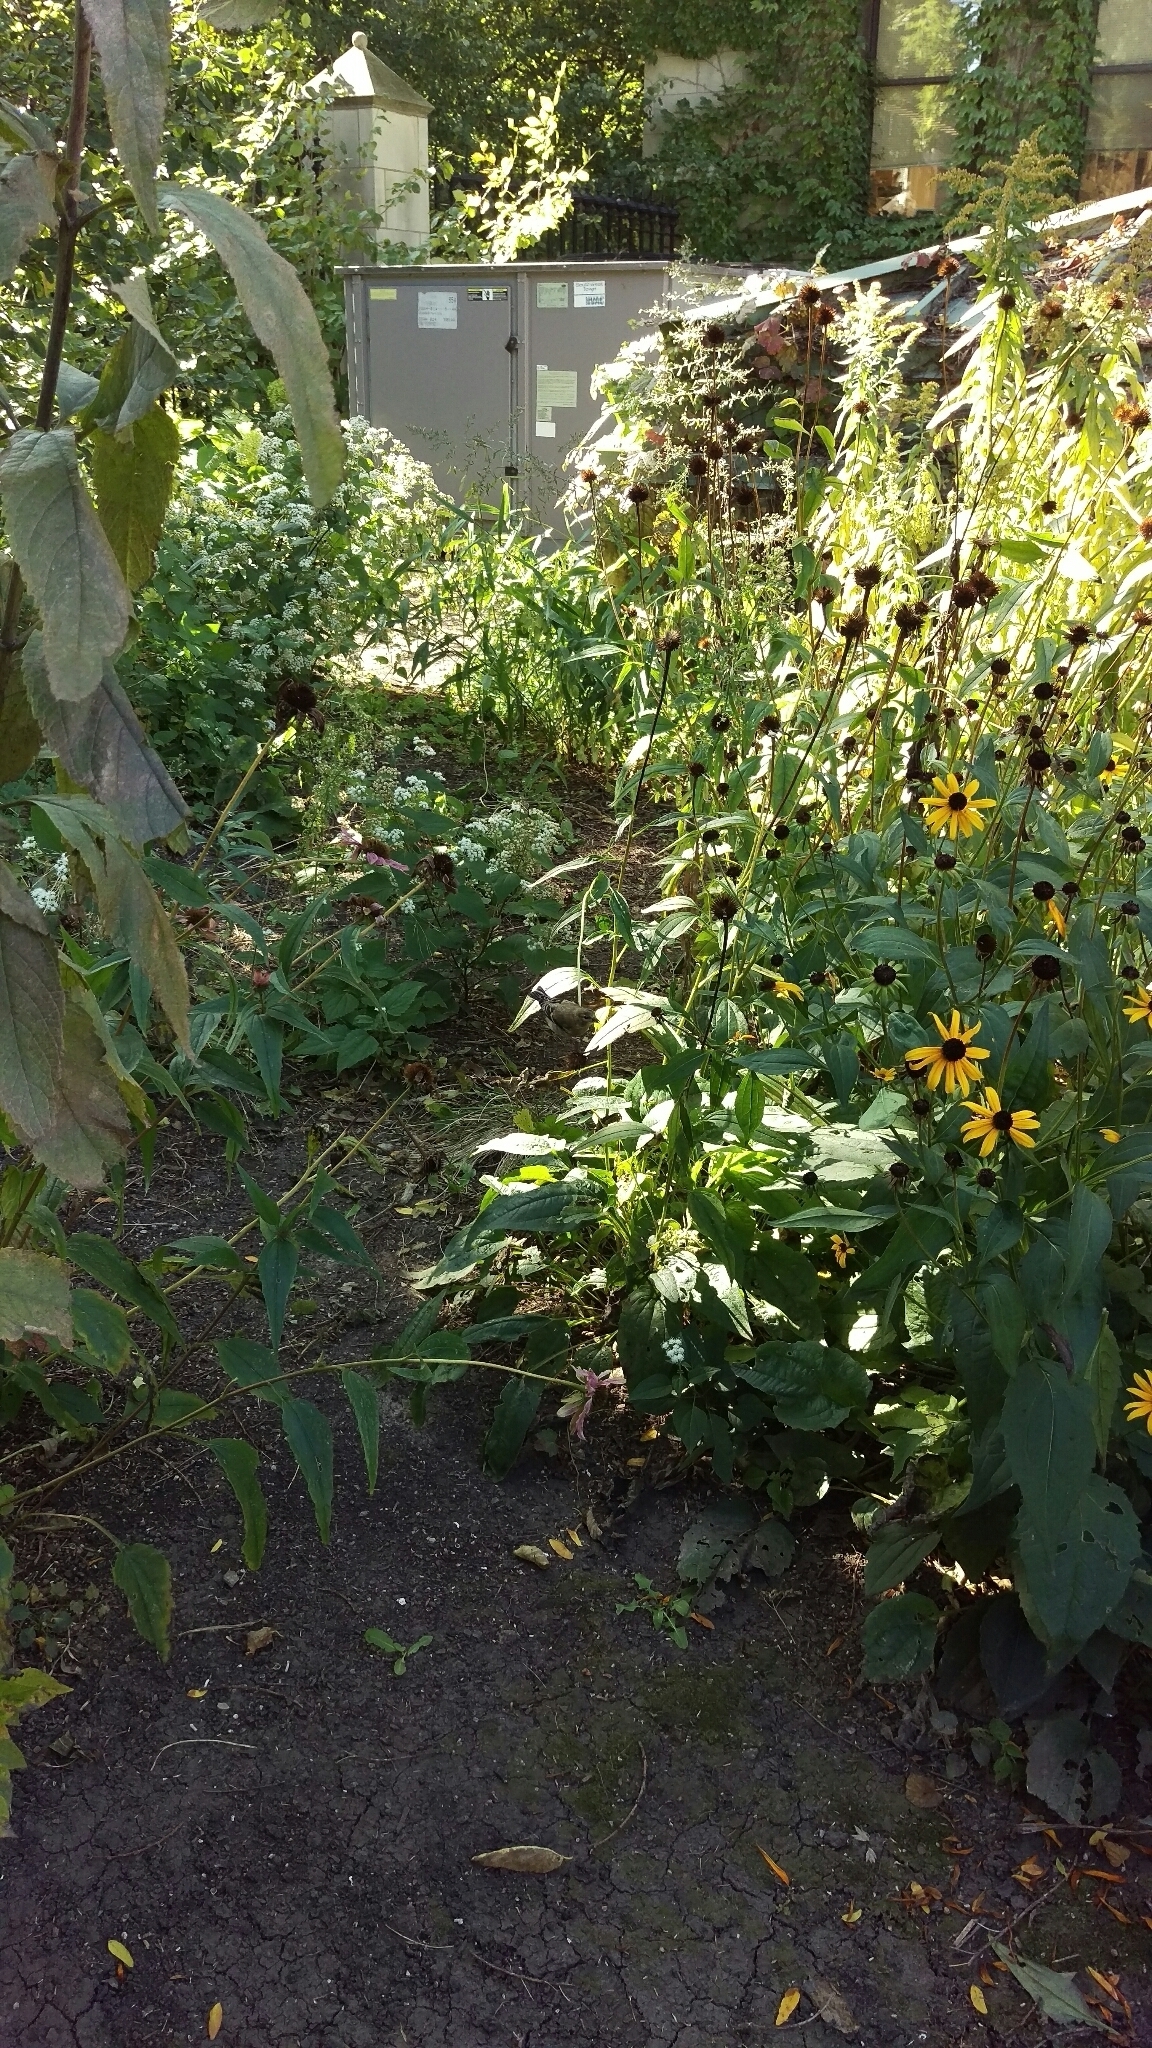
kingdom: Animalia
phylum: Chordata
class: Aves
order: Passeriformes
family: Fringillidae
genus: Spinus
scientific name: Spinus tristis
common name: American goldfinch
